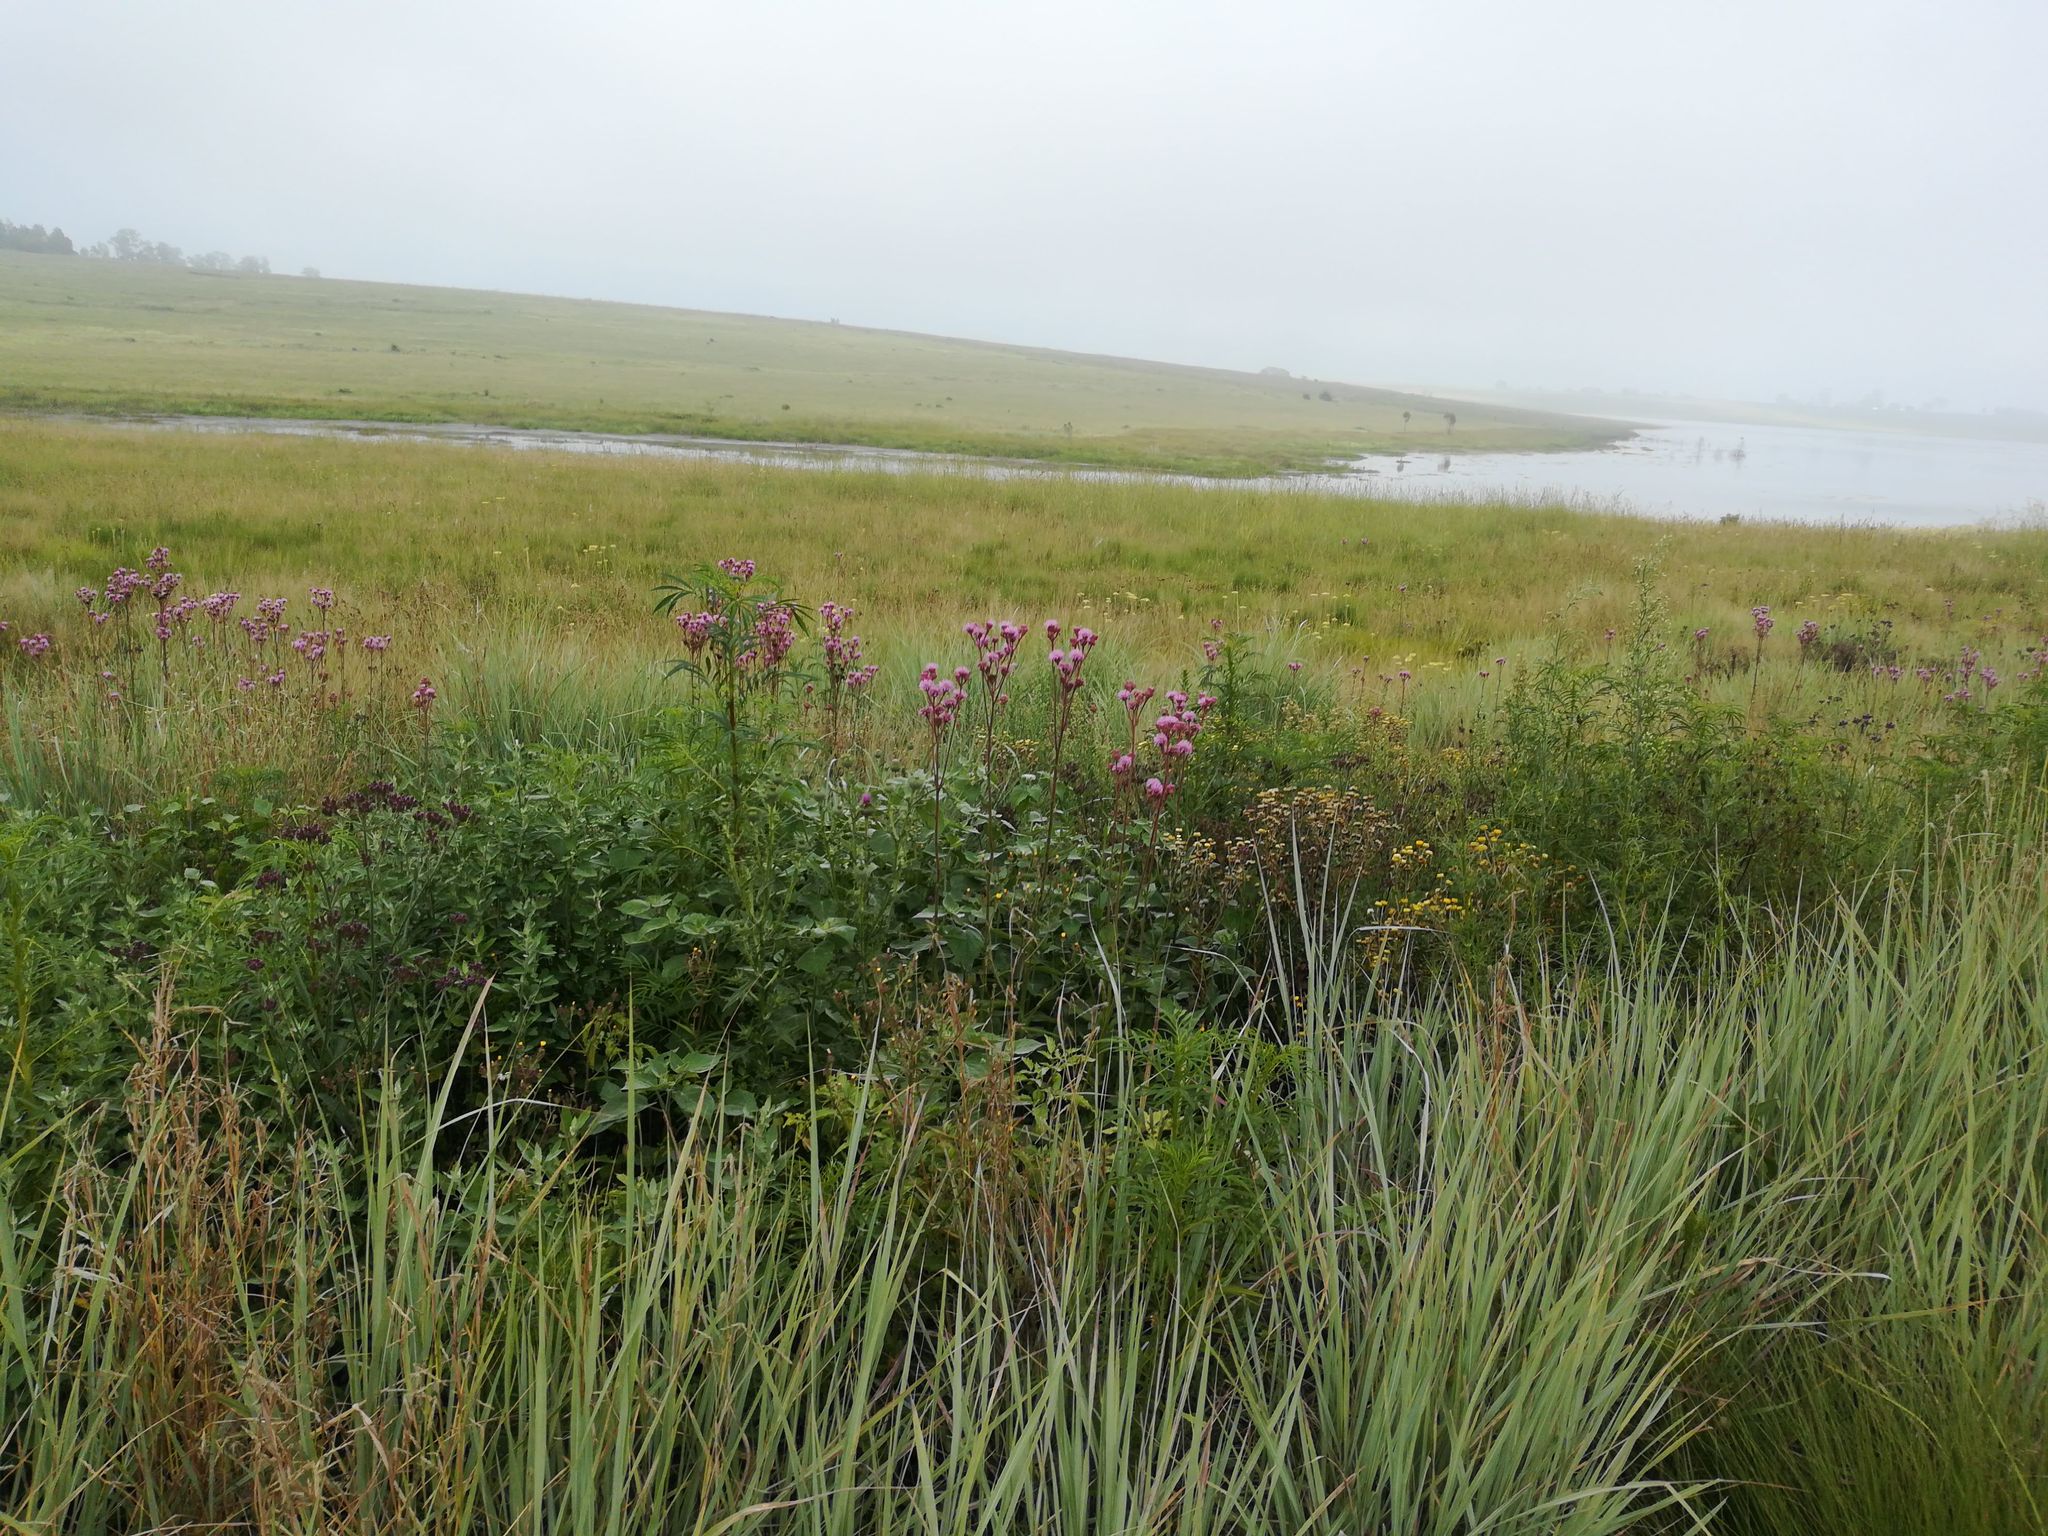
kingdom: Plantae
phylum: Tracheophyta
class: Magnoliopsida
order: Asterales
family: Asteraceae
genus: Campuloclinium
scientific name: Campuloclinium macrocephalum
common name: Pompomweed
